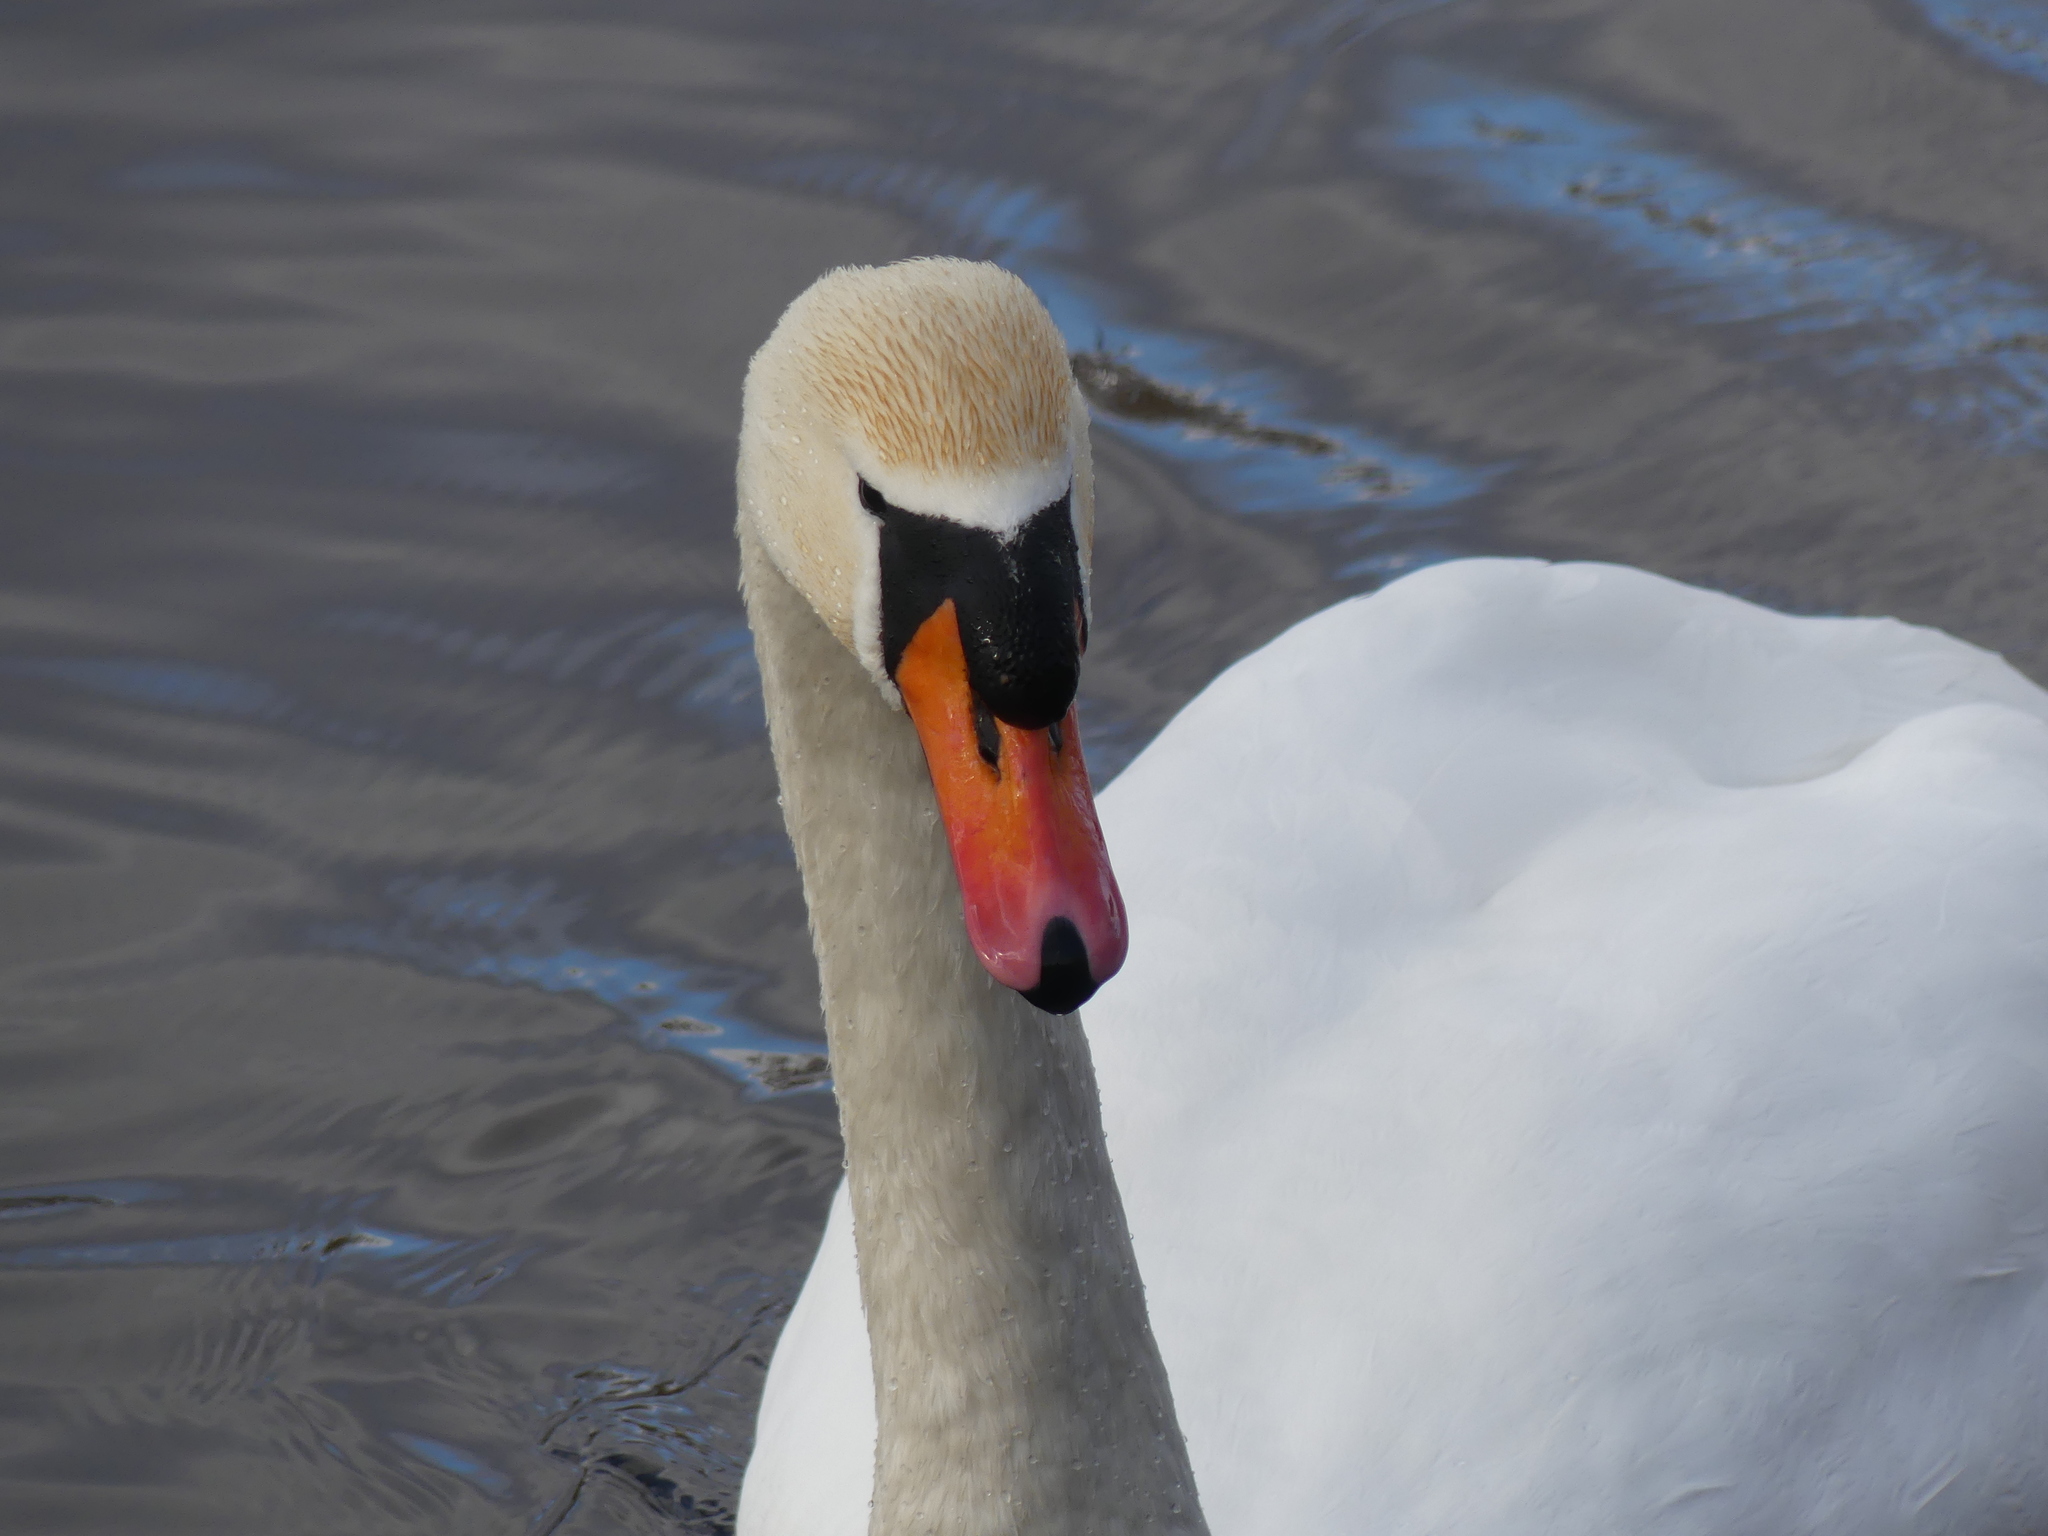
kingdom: Animalia
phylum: Chordata
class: Aves
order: Anseriformes
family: Anatidae
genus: Cygnus
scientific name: Cygnus olor
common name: Mute swan
